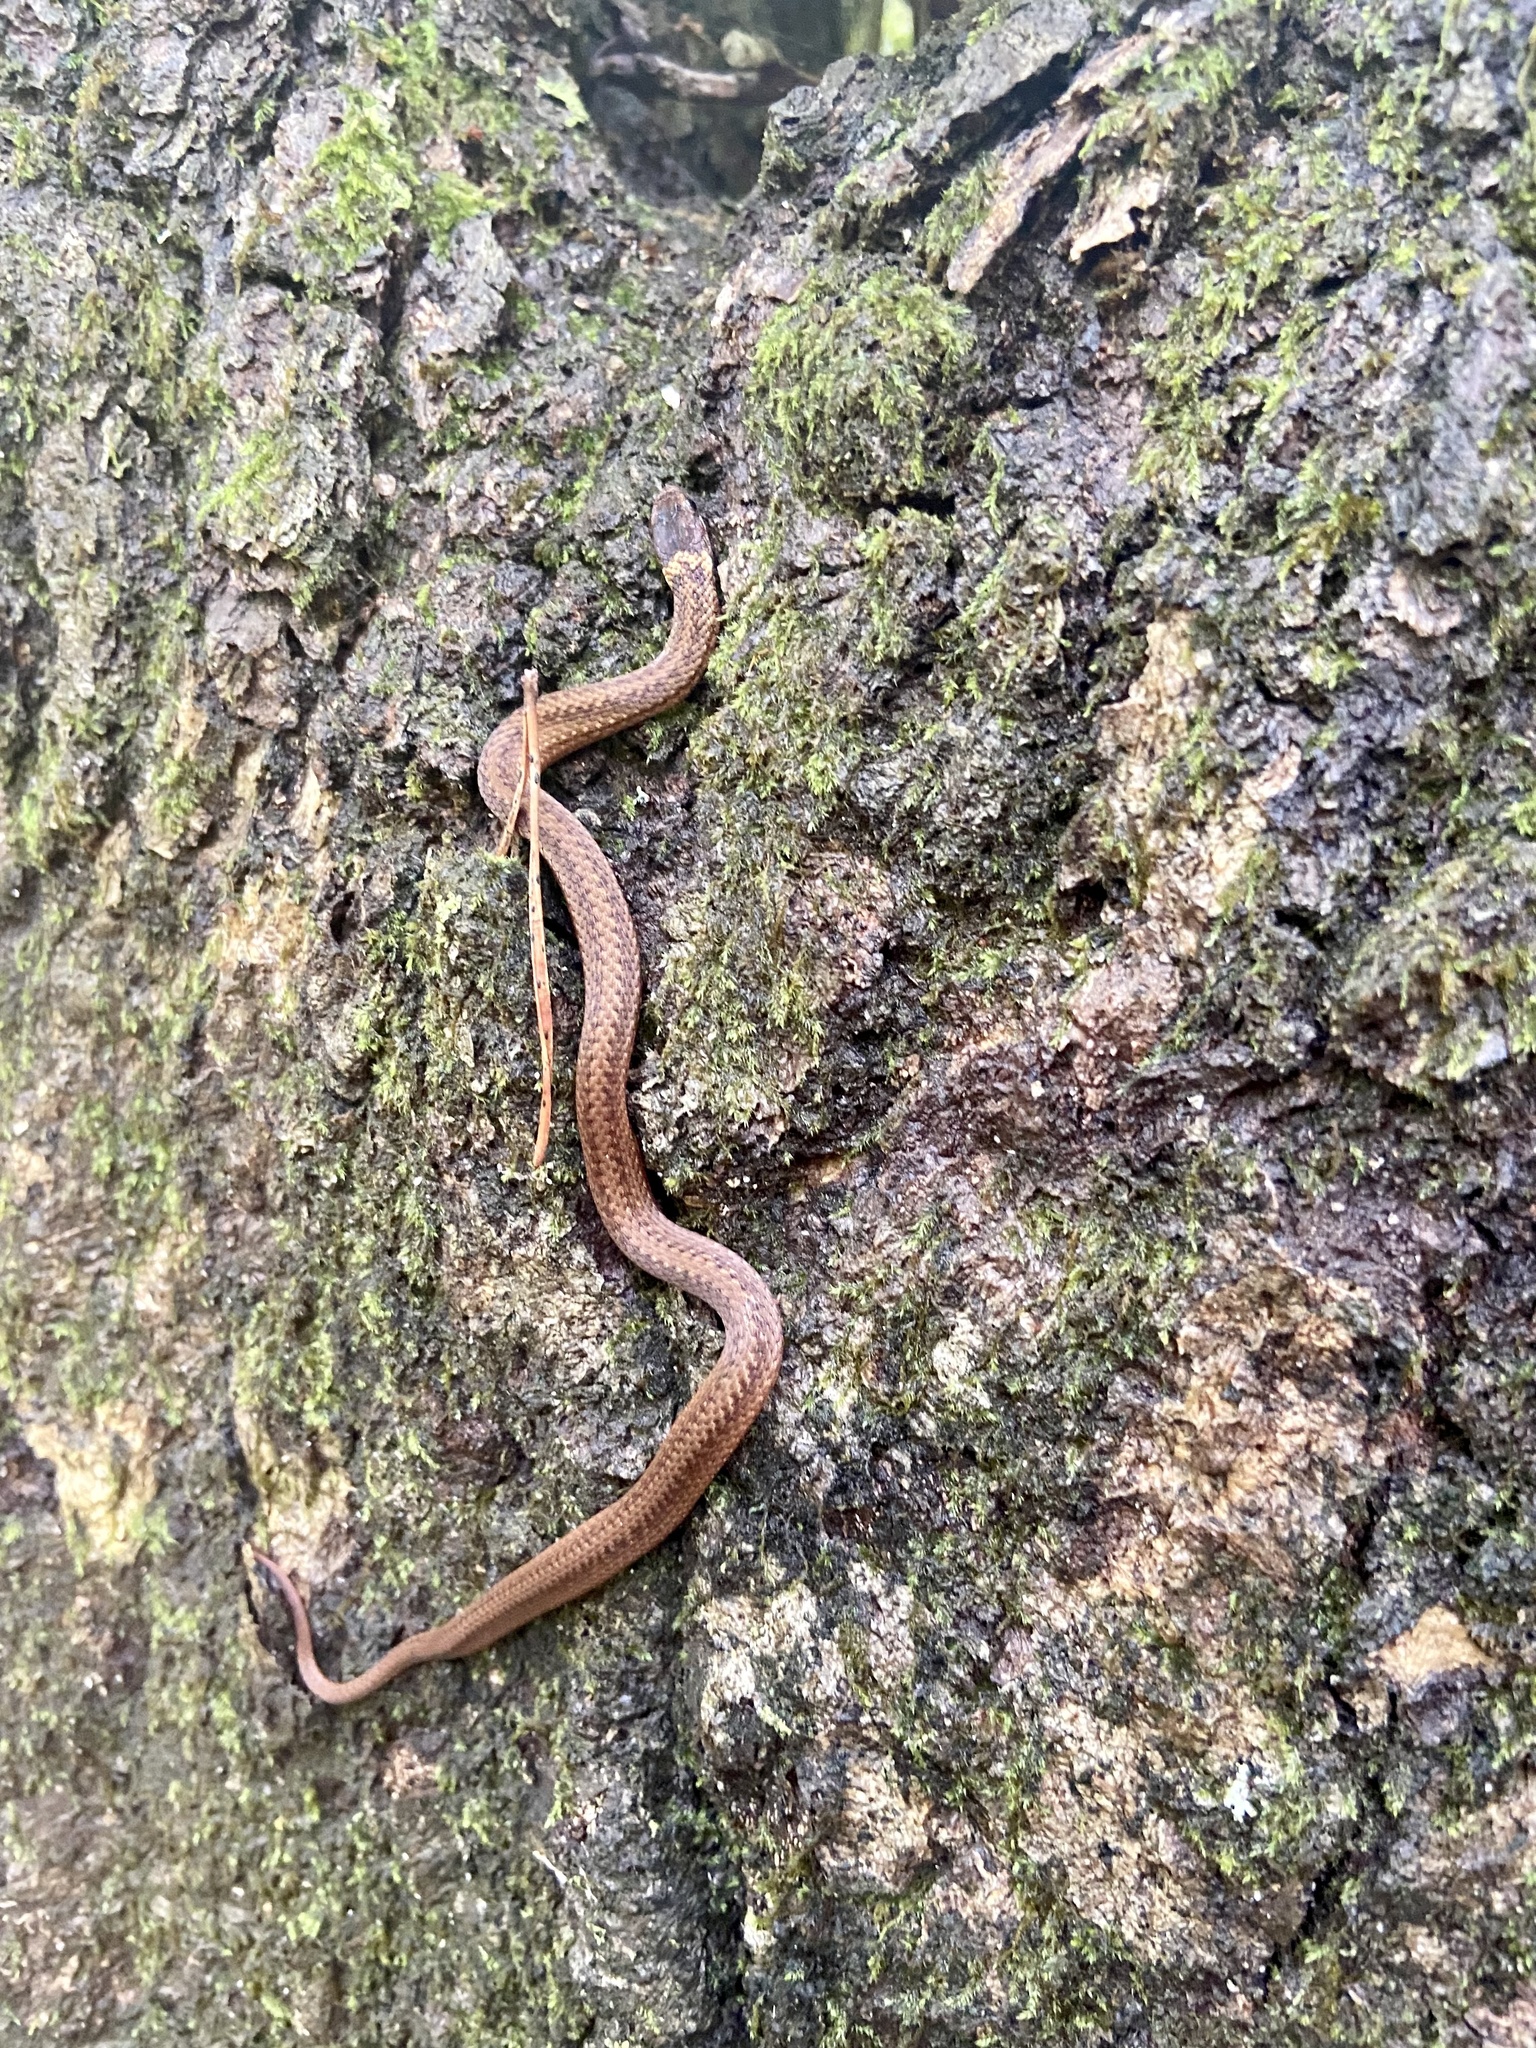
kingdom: Animalia
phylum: Chordata
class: Squamata
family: Colubridae
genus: Storeria
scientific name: Storeria occipitomaculata
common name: Redbelly snake
